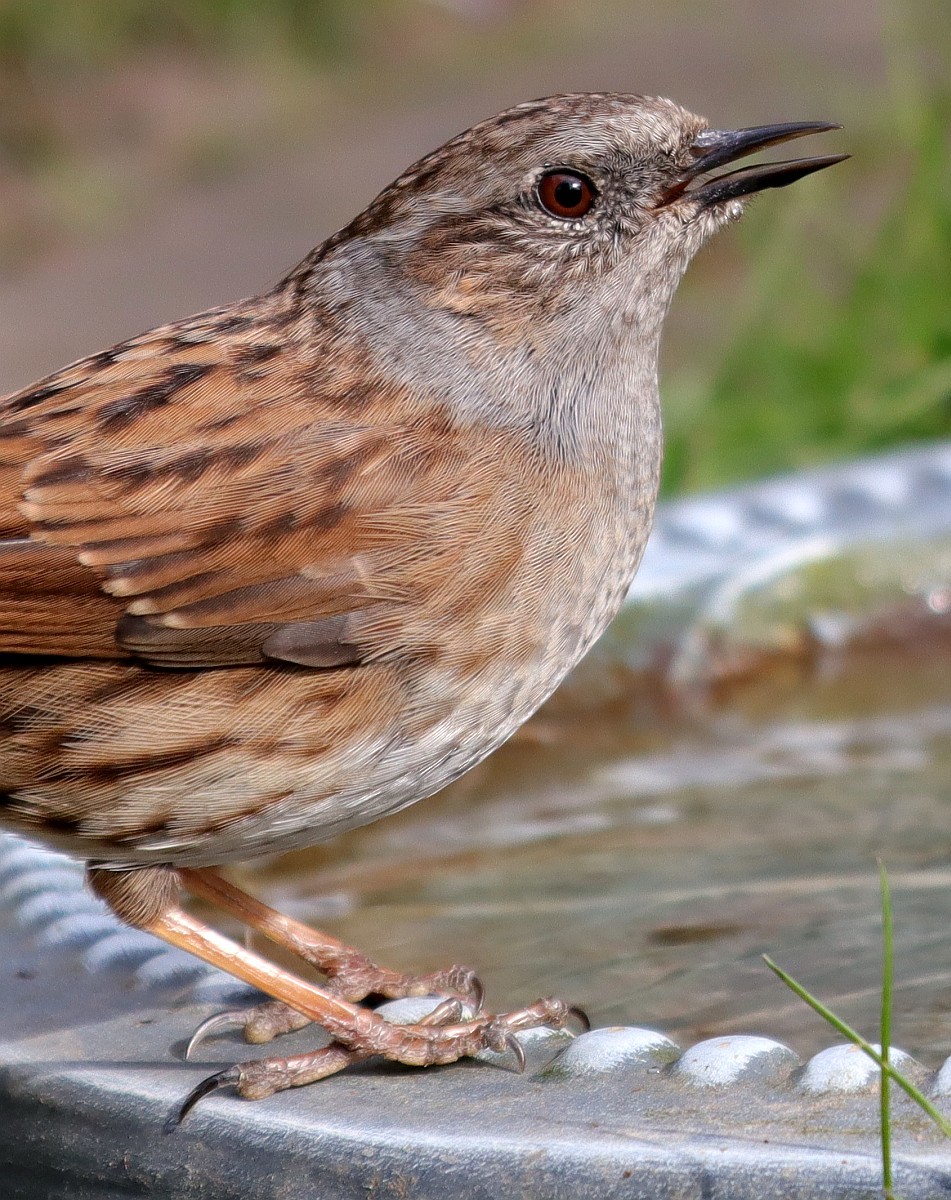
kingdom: Animalia
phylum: Chordata
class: Aves
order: Passeriformes
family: Prunellidae
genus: Prunella
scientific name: Prunella modularis
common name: Dunnock
